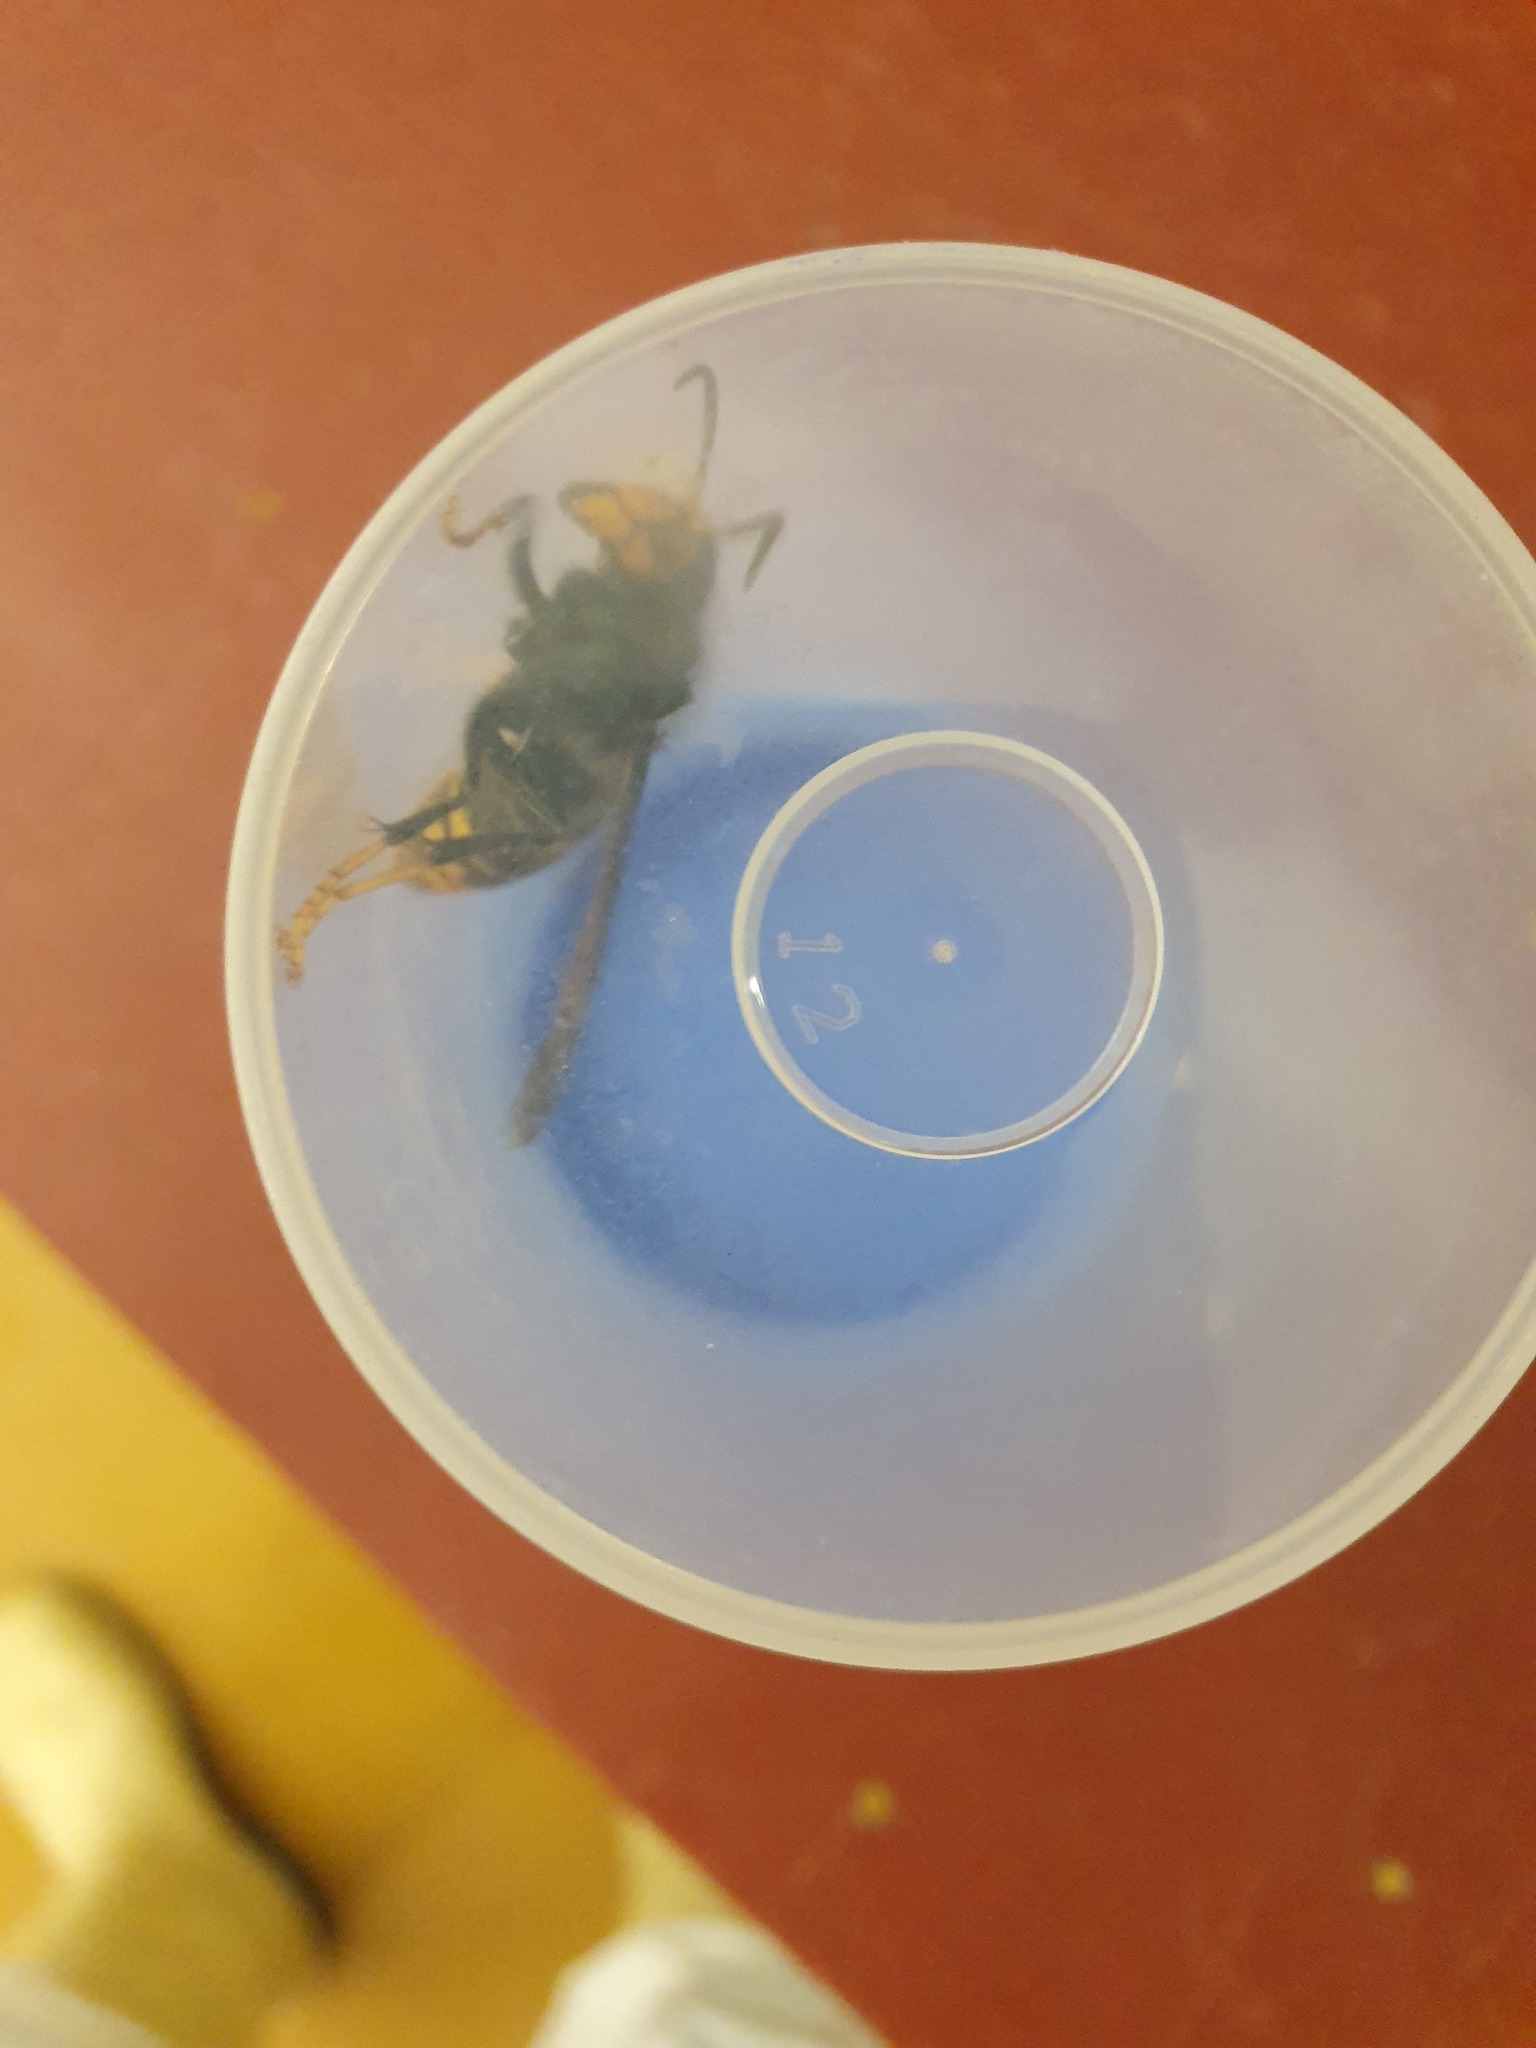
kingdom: Animalia
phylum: Arthropoda
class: Insecta
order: Hymenoptera
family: Vespidae
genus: Vespa
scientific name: Vespa velutina
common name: Asian hornet
